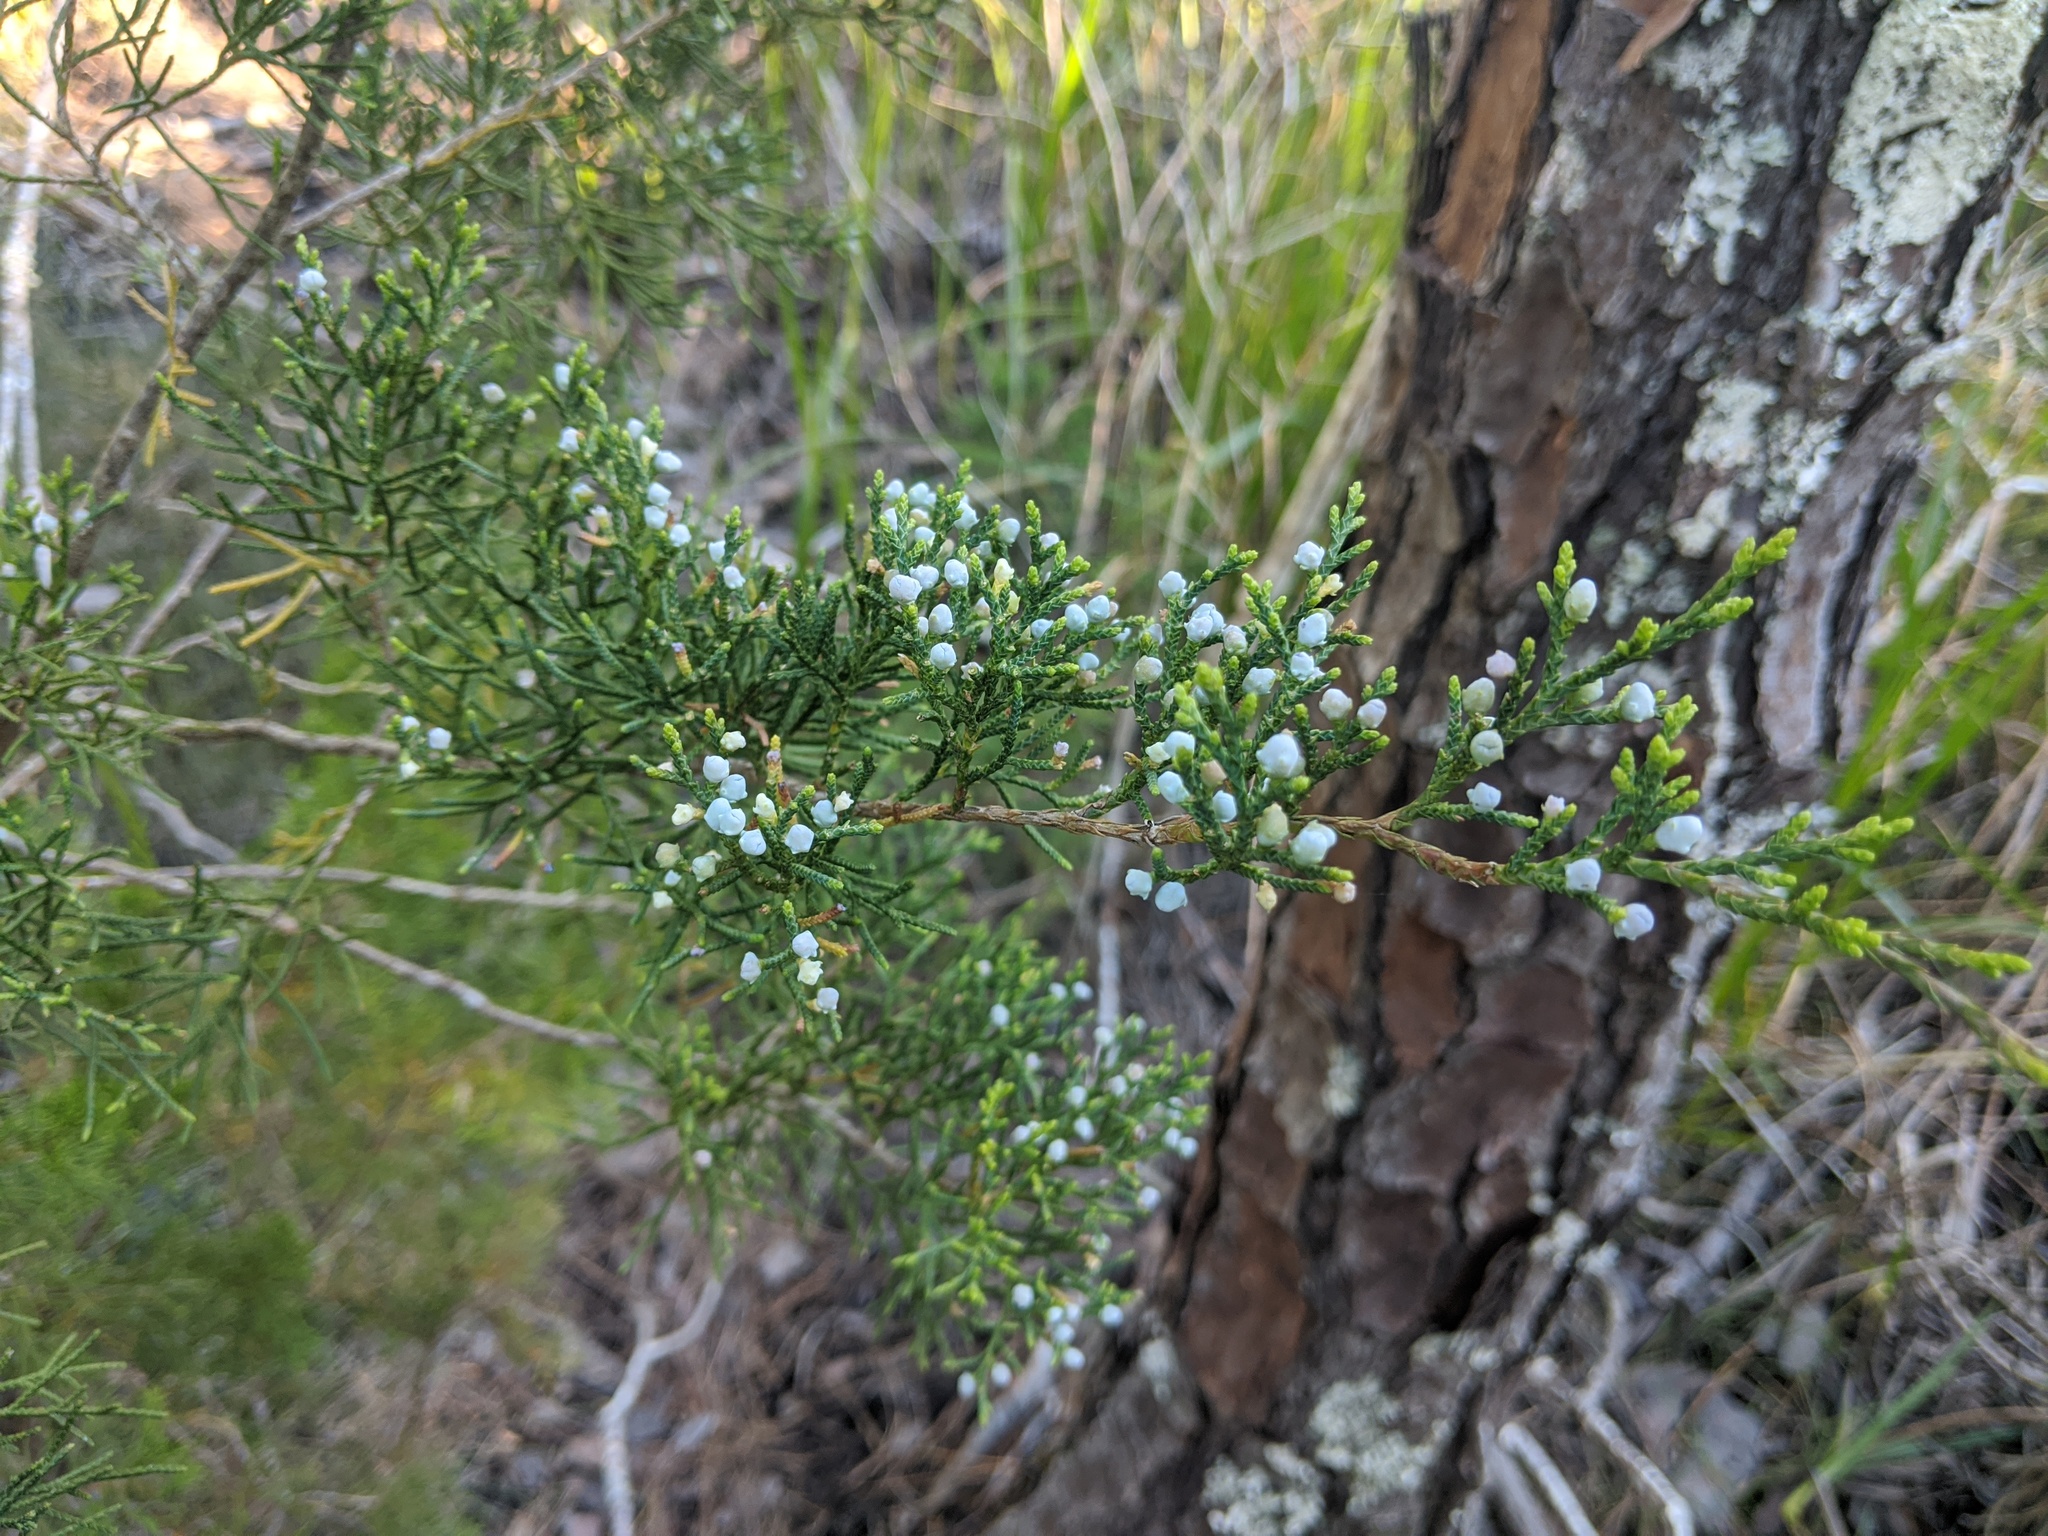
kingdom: Plantae
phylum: Tracheophyta
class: Pinopsida
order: Pinales
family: Cupressaceae
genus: Juniperus
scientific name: Juniperus virginiana
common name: Red juniper
